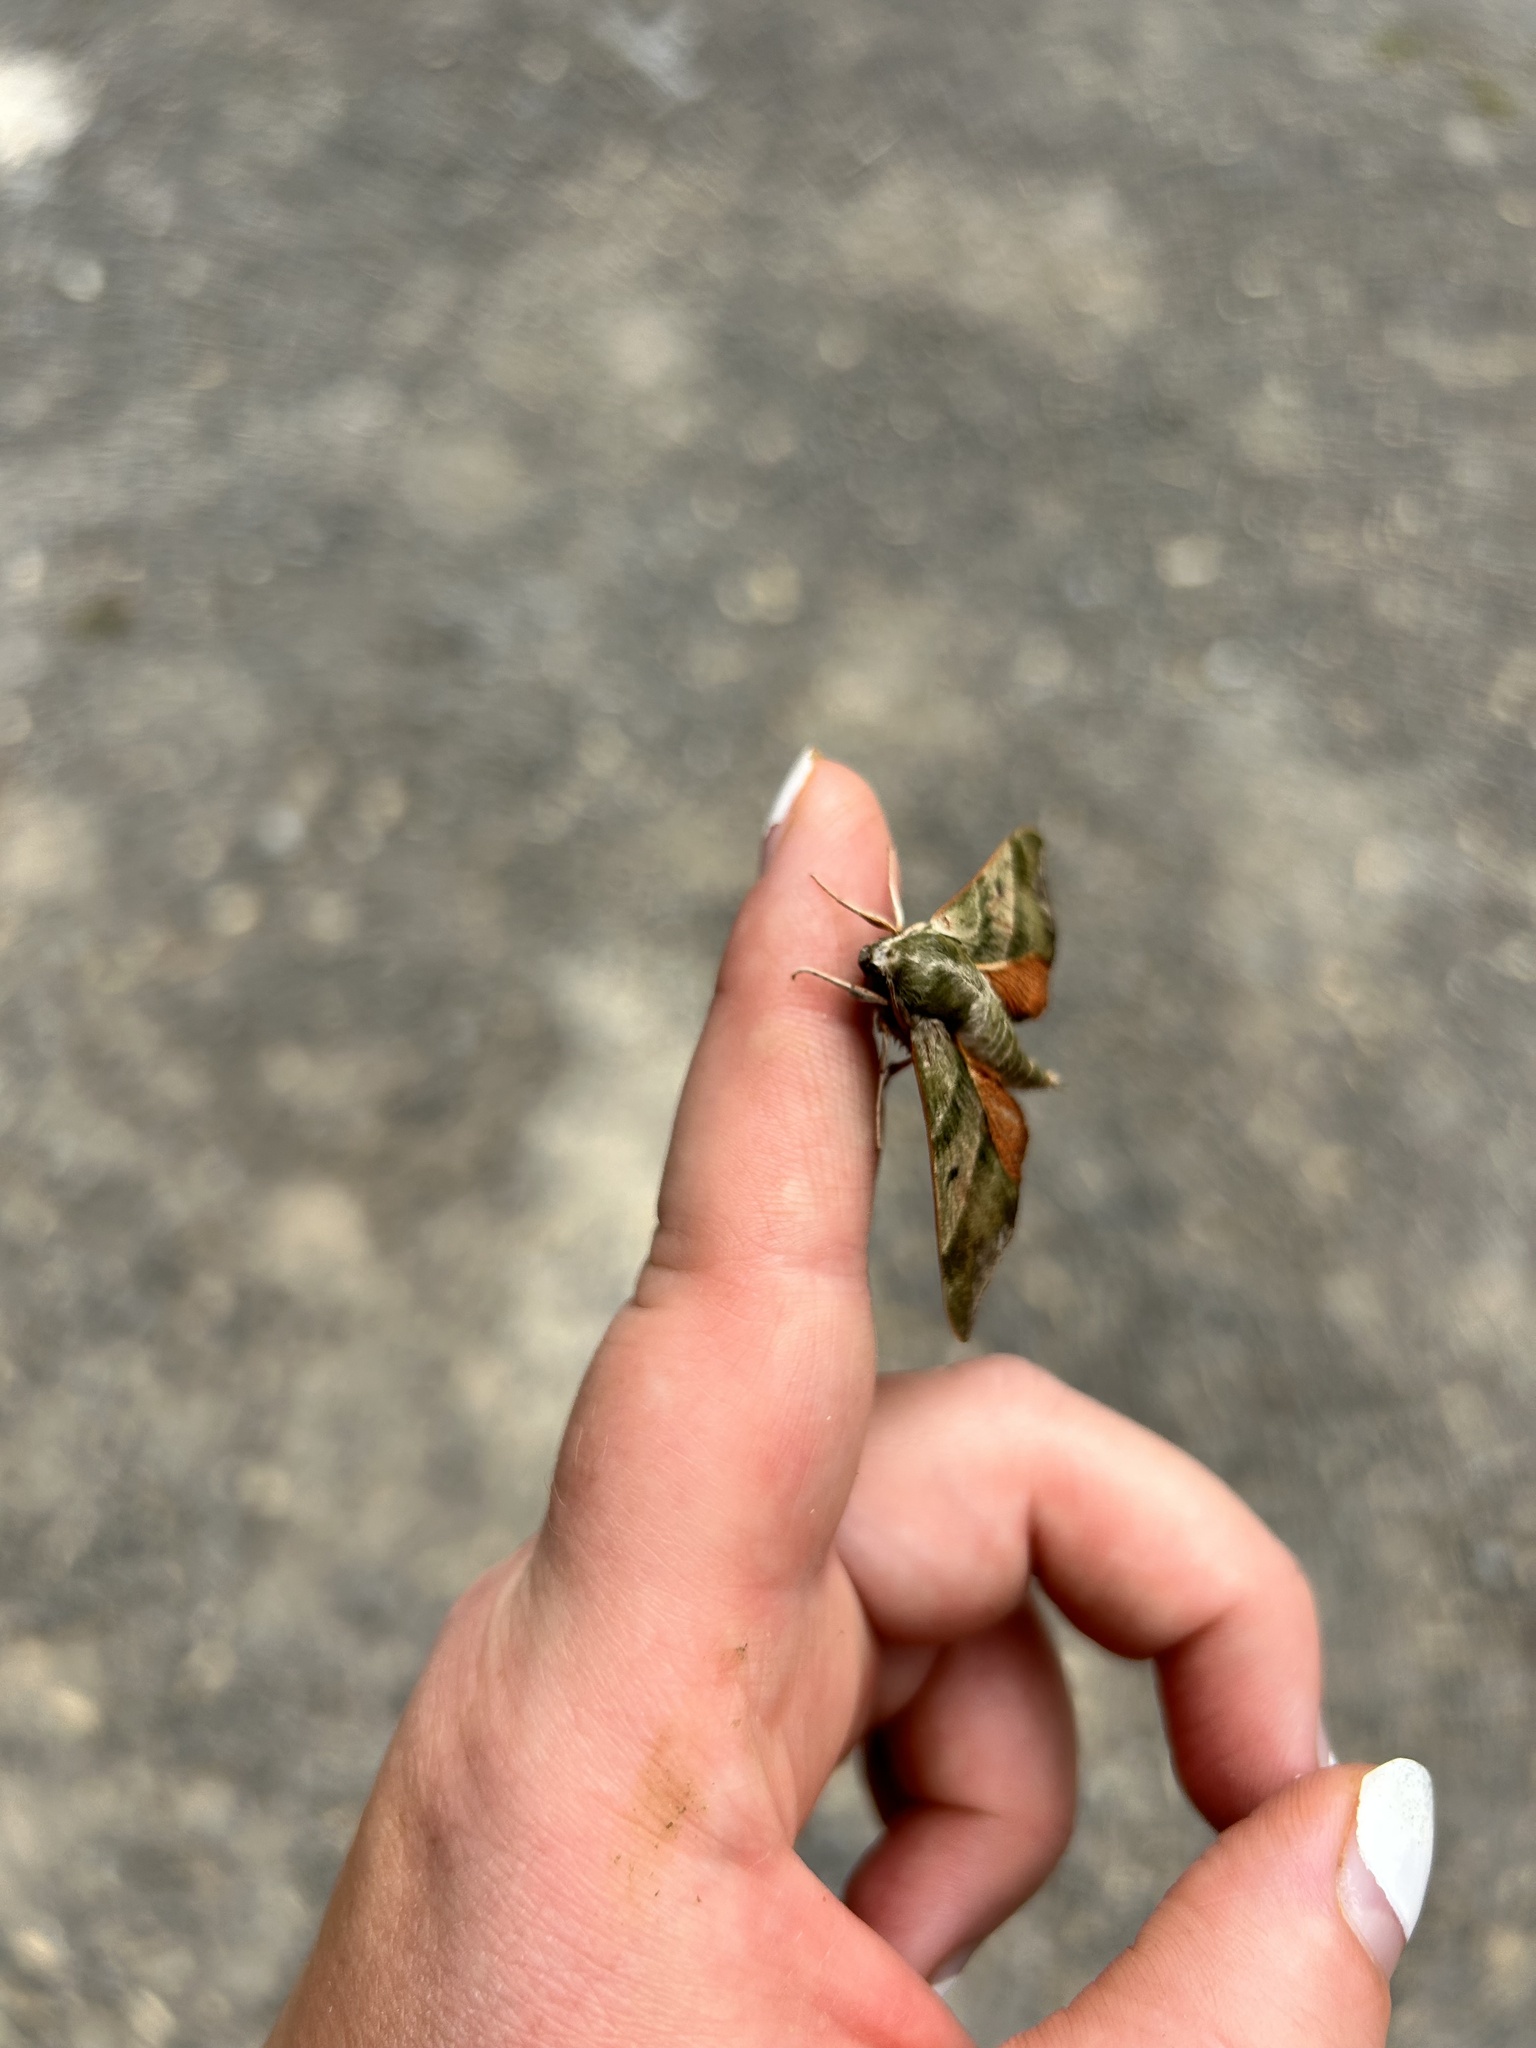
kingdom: Animalia
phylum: Arthropoda
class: Insecta
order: Lepidoptera
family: Sphingidae
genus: Darapsa
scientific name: Darapsa myron
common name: Hog sphinx
